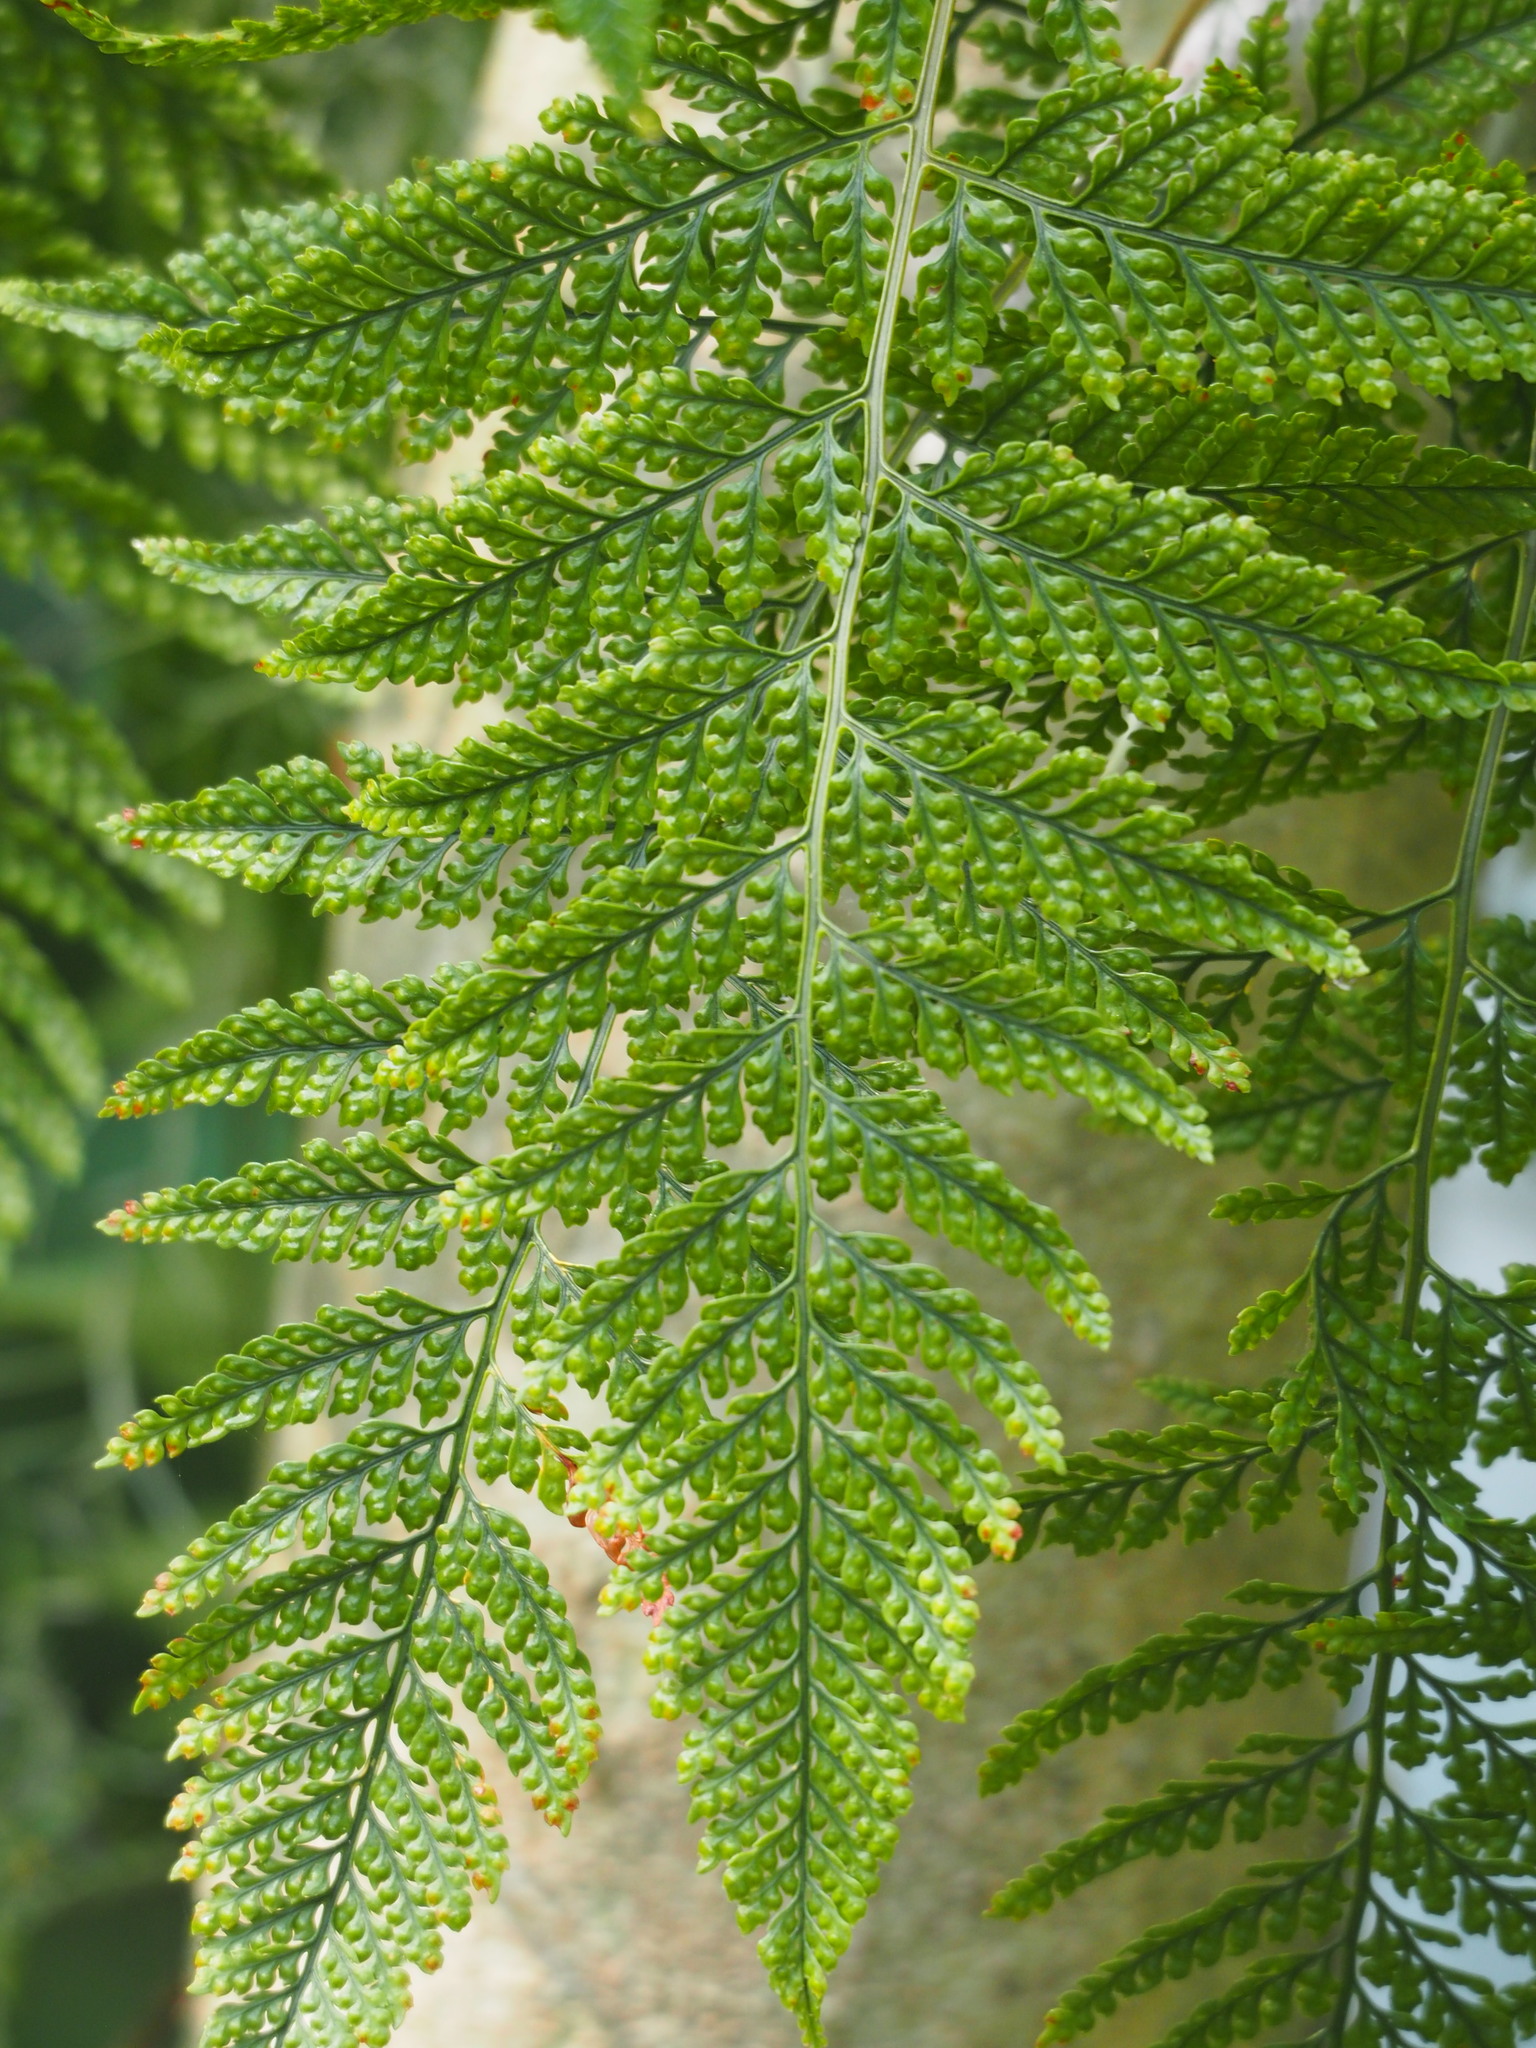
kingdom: Plantae
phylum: Tracheophyta
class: Polypodiopsida
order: Polypodiales
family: Davalliaceae
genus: Davallia
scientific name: Davallia griffithiana
